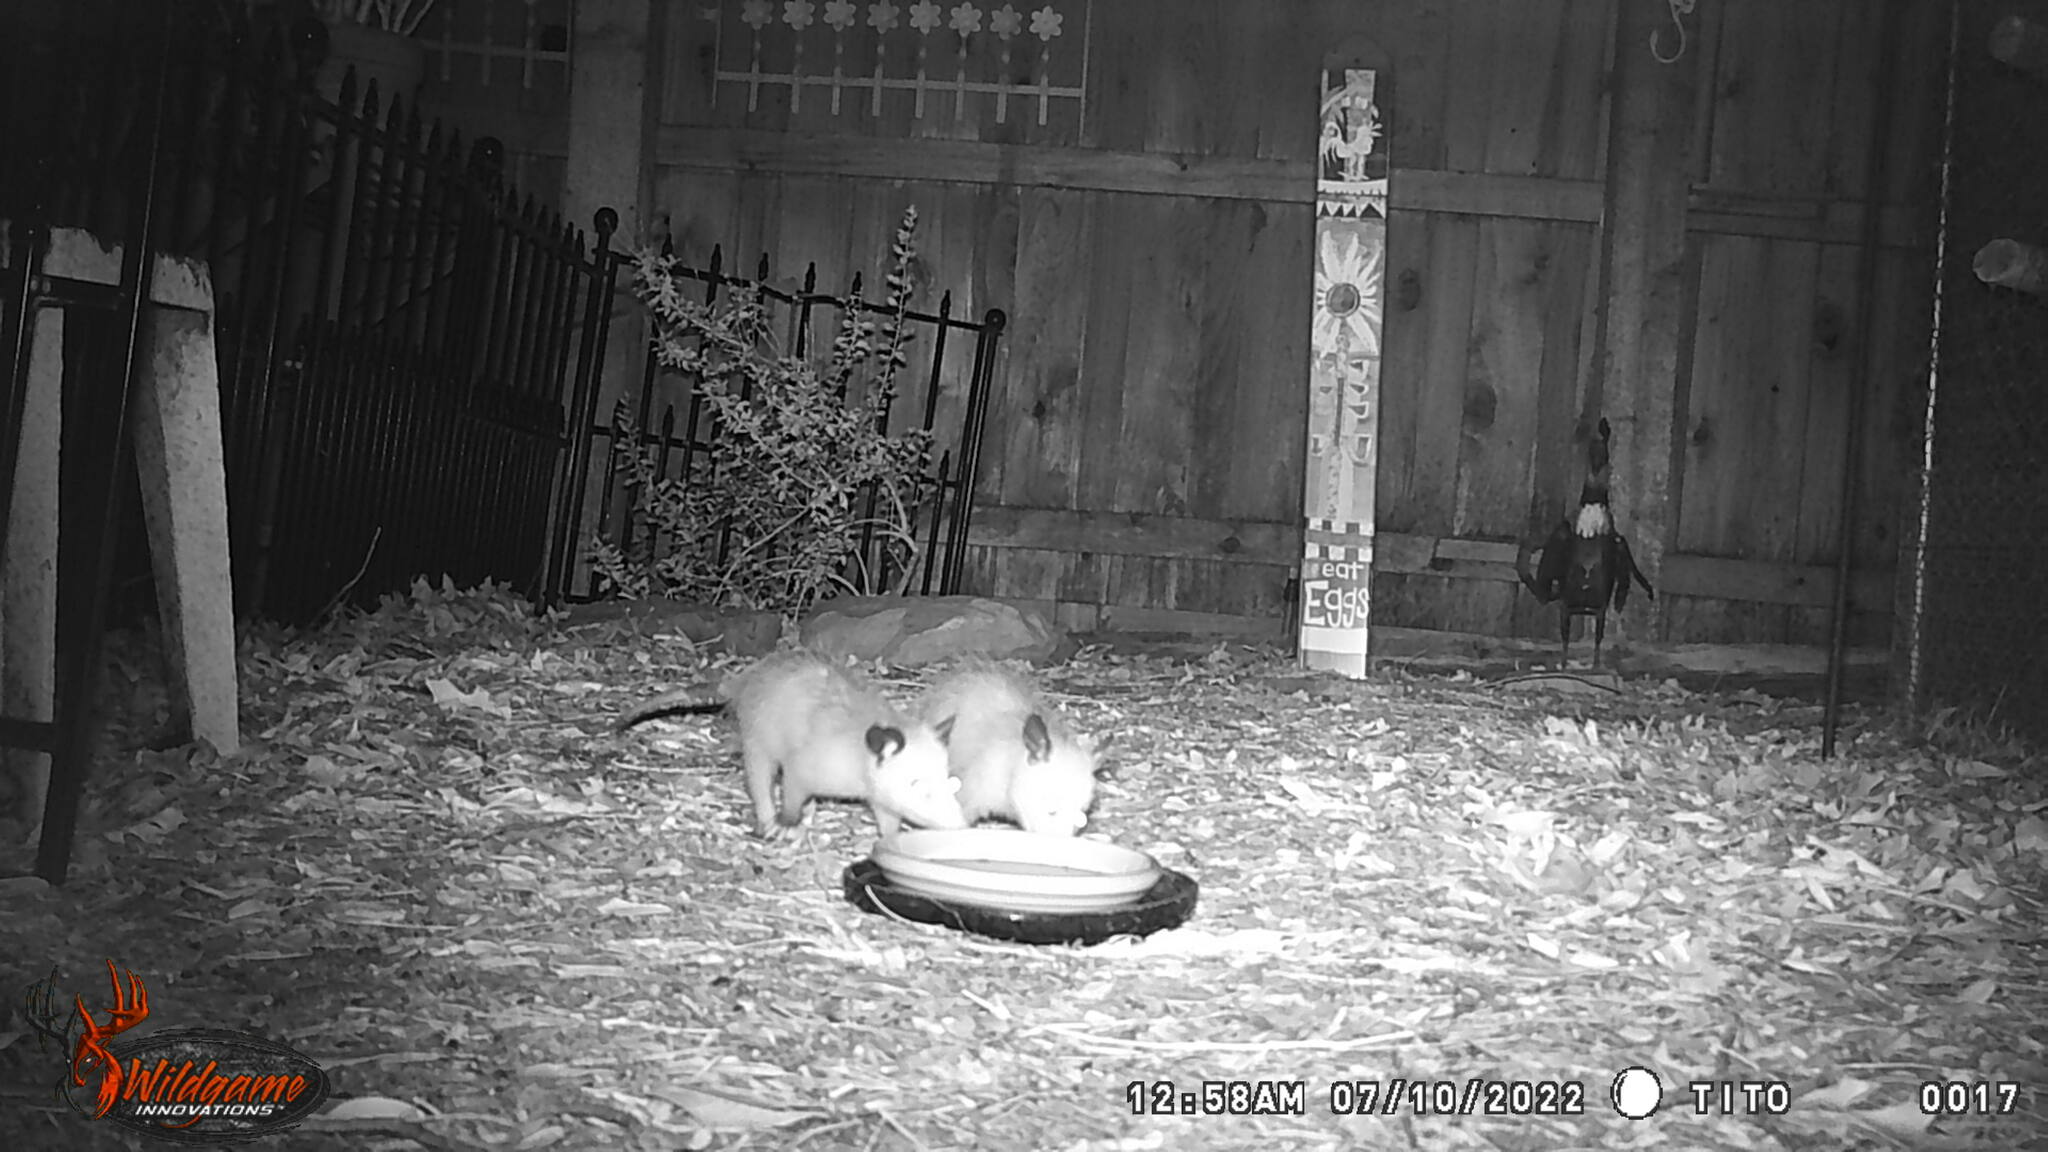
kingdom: Animalia
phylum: Chordata
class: Mammalia
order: Didelphimorphia
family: Didelphidae
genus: Didelphis
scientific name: Didelphis virginiana
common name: Virginia opossum
